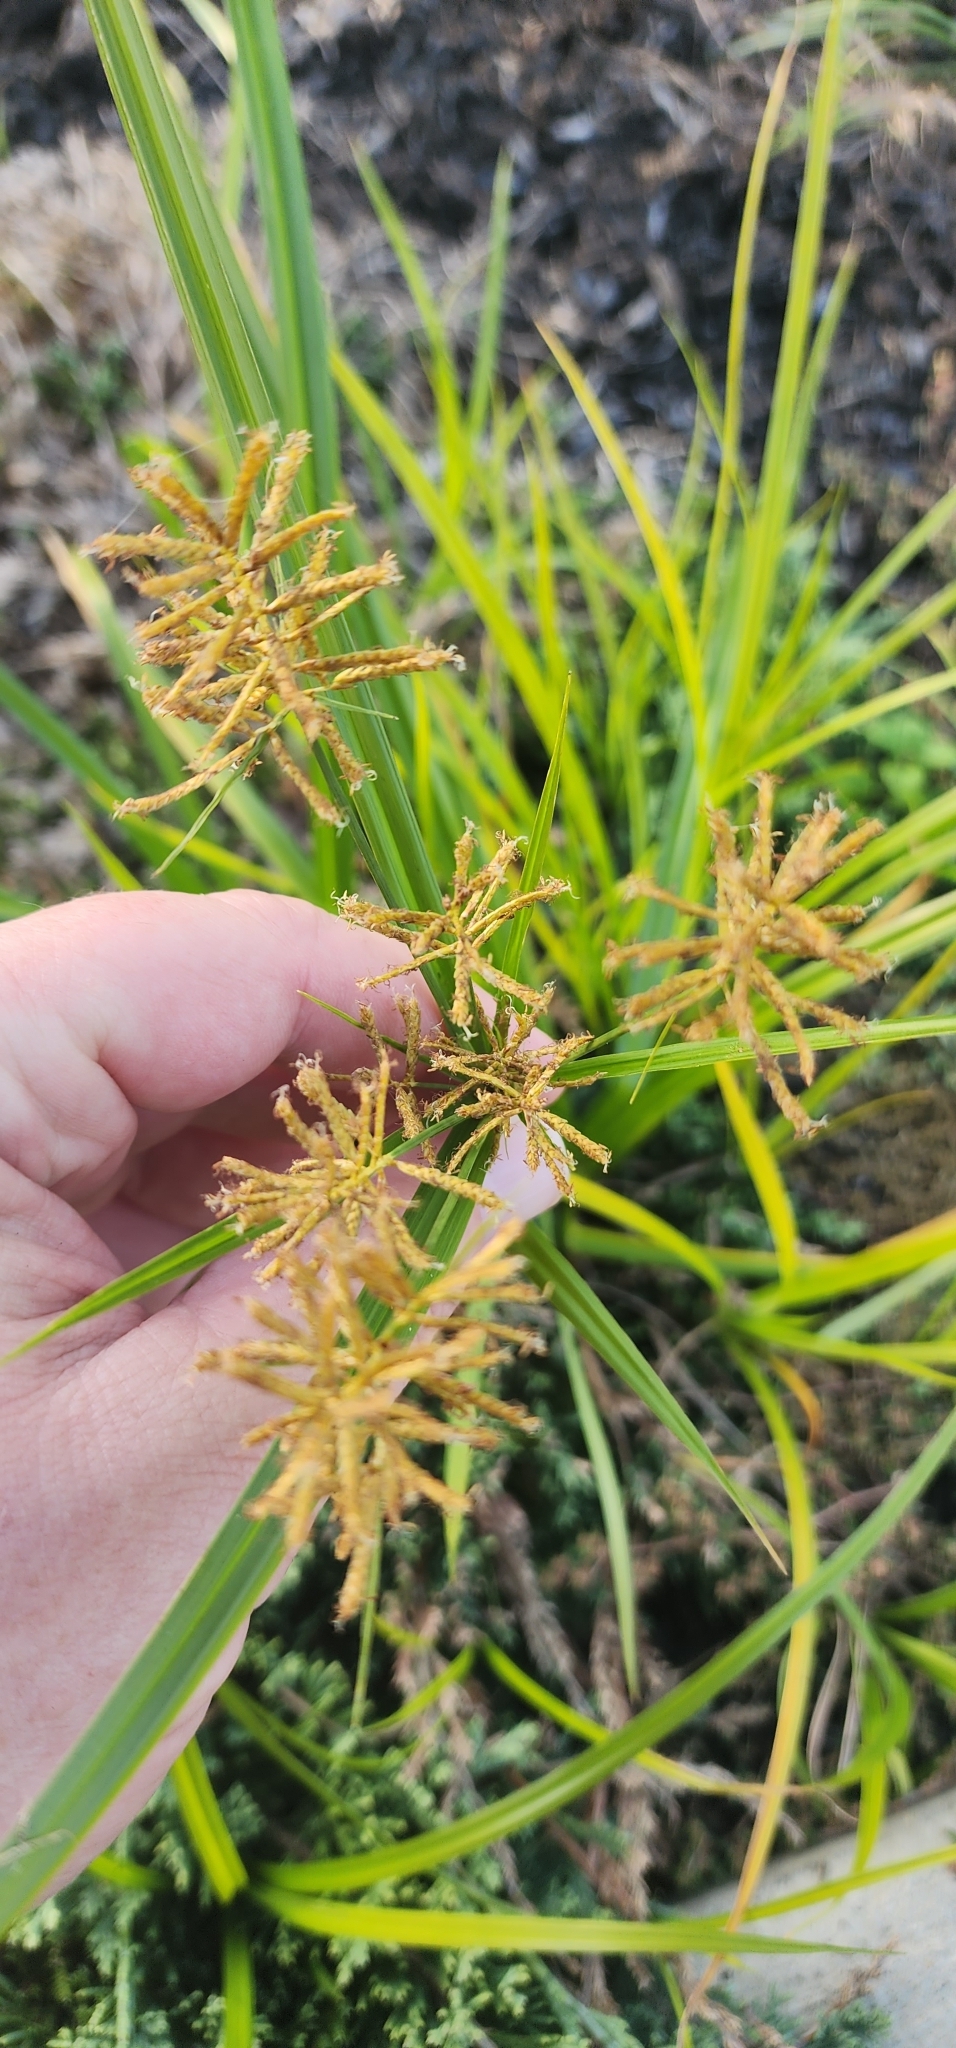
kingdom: Plantae
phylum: Tracheophyta
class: Liliopsida
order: Poales
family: Cyperaceae
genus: Cyperus
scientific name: Cyperus esculentus
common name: Yellow nutsedge
